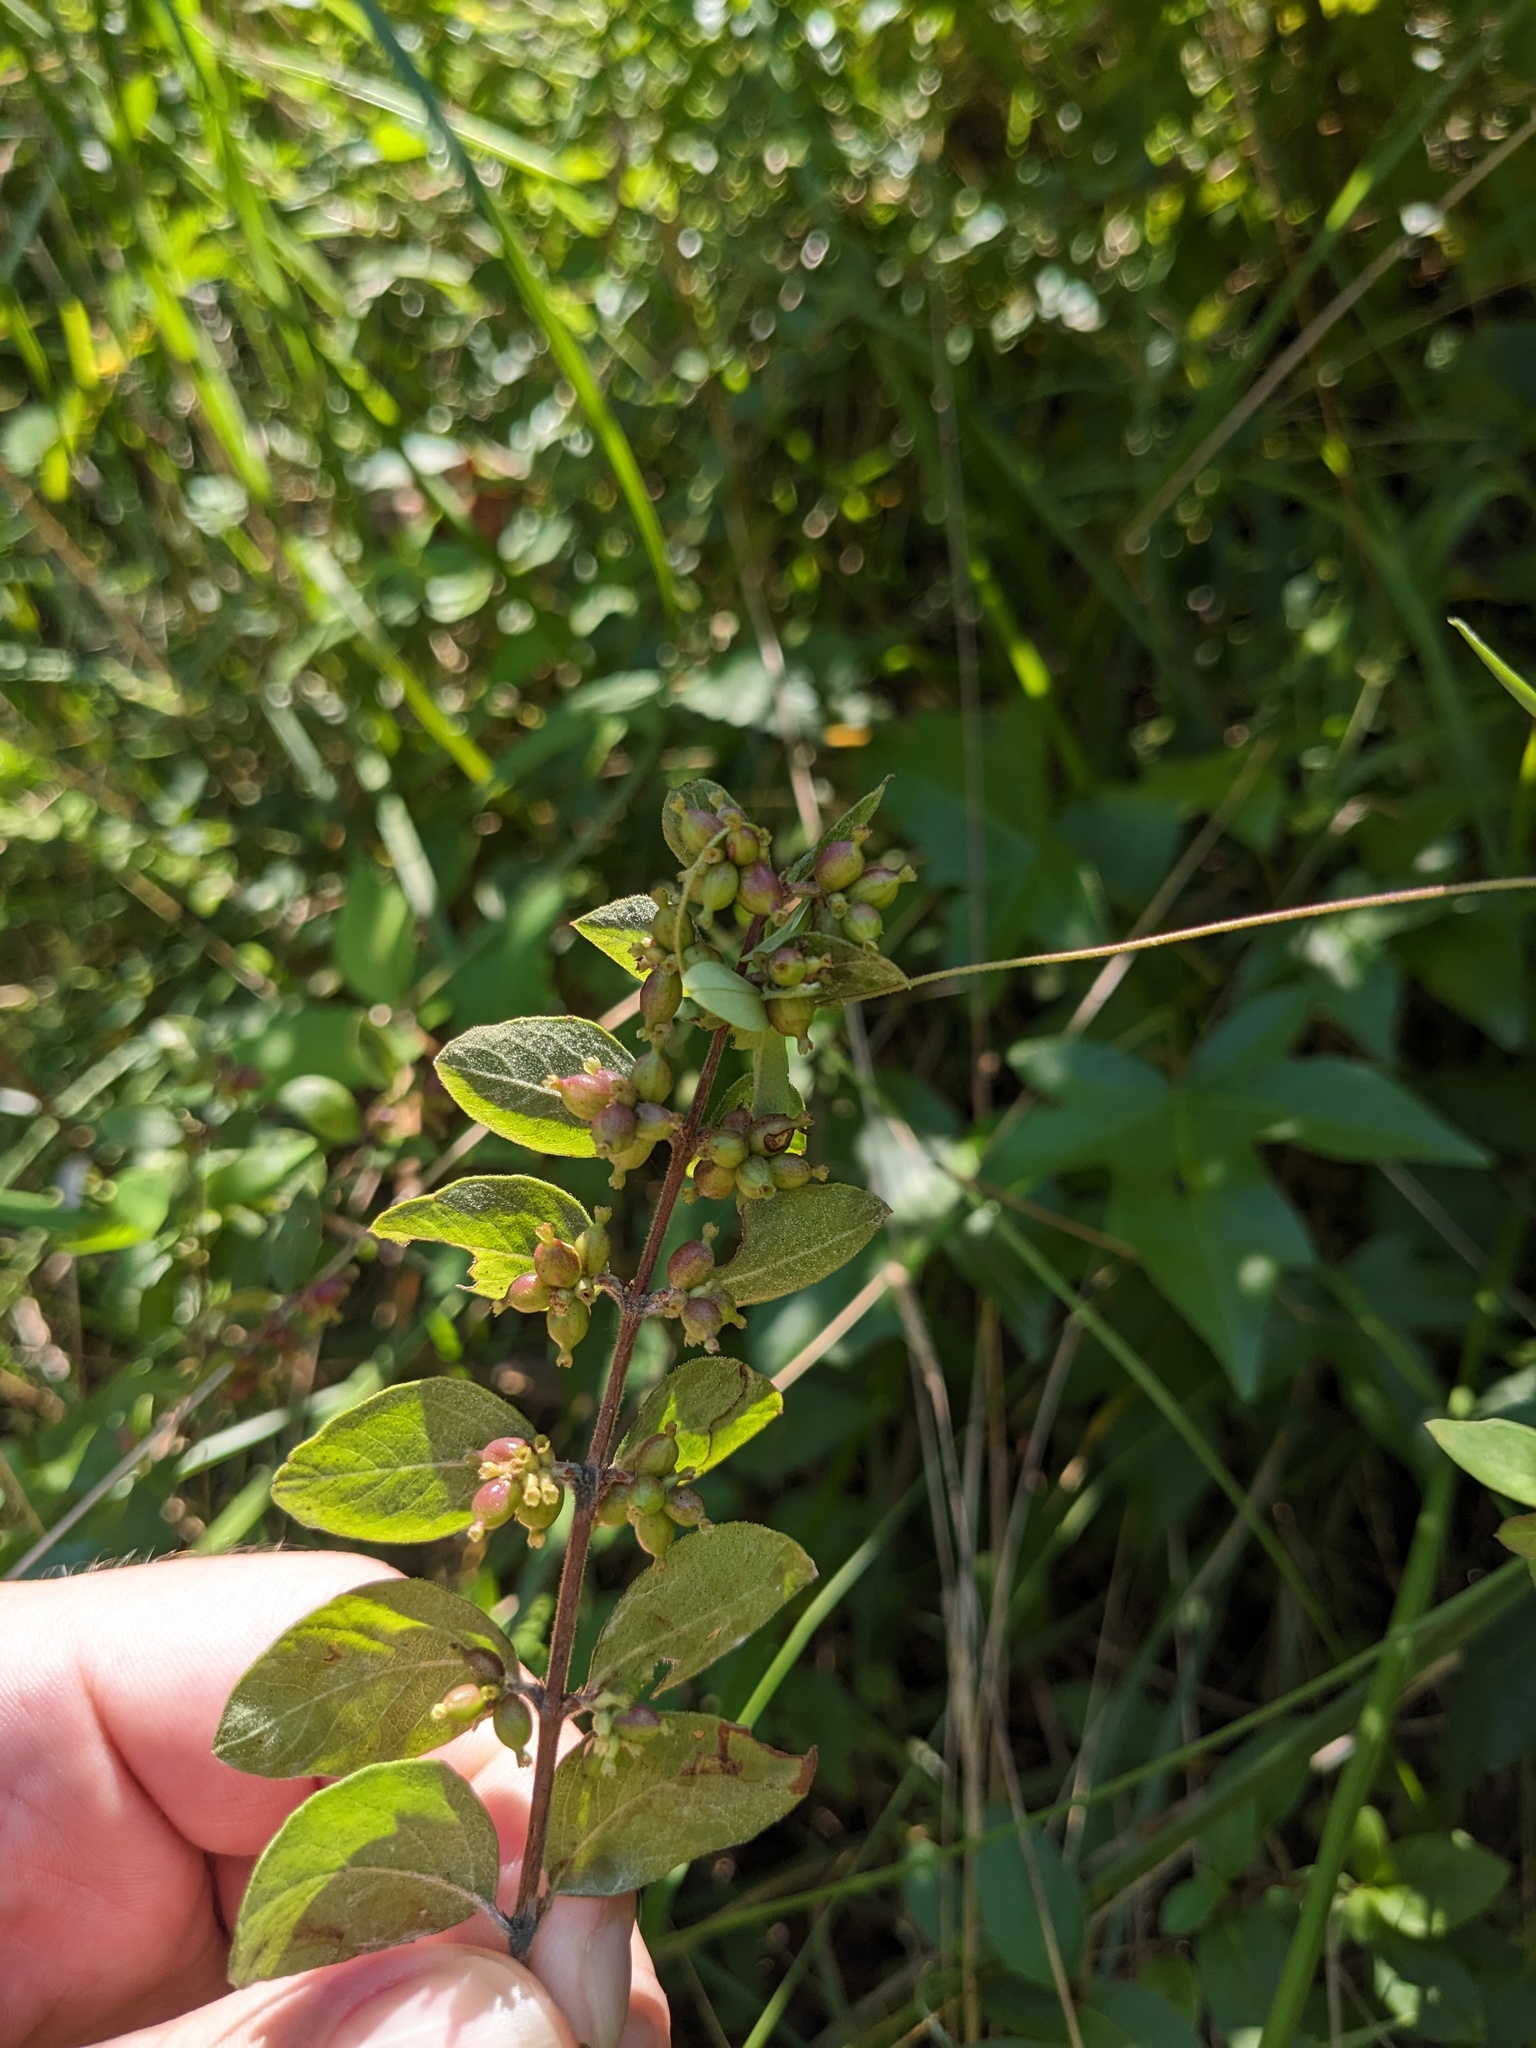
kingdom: Plantae
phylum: Tracheophyta
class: Magnoliopsida
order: Dipsacales
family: Caprifoliaceae
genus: Symphoricarpos
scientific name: Symphoricarpos orbiculatus
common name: Coralberry
